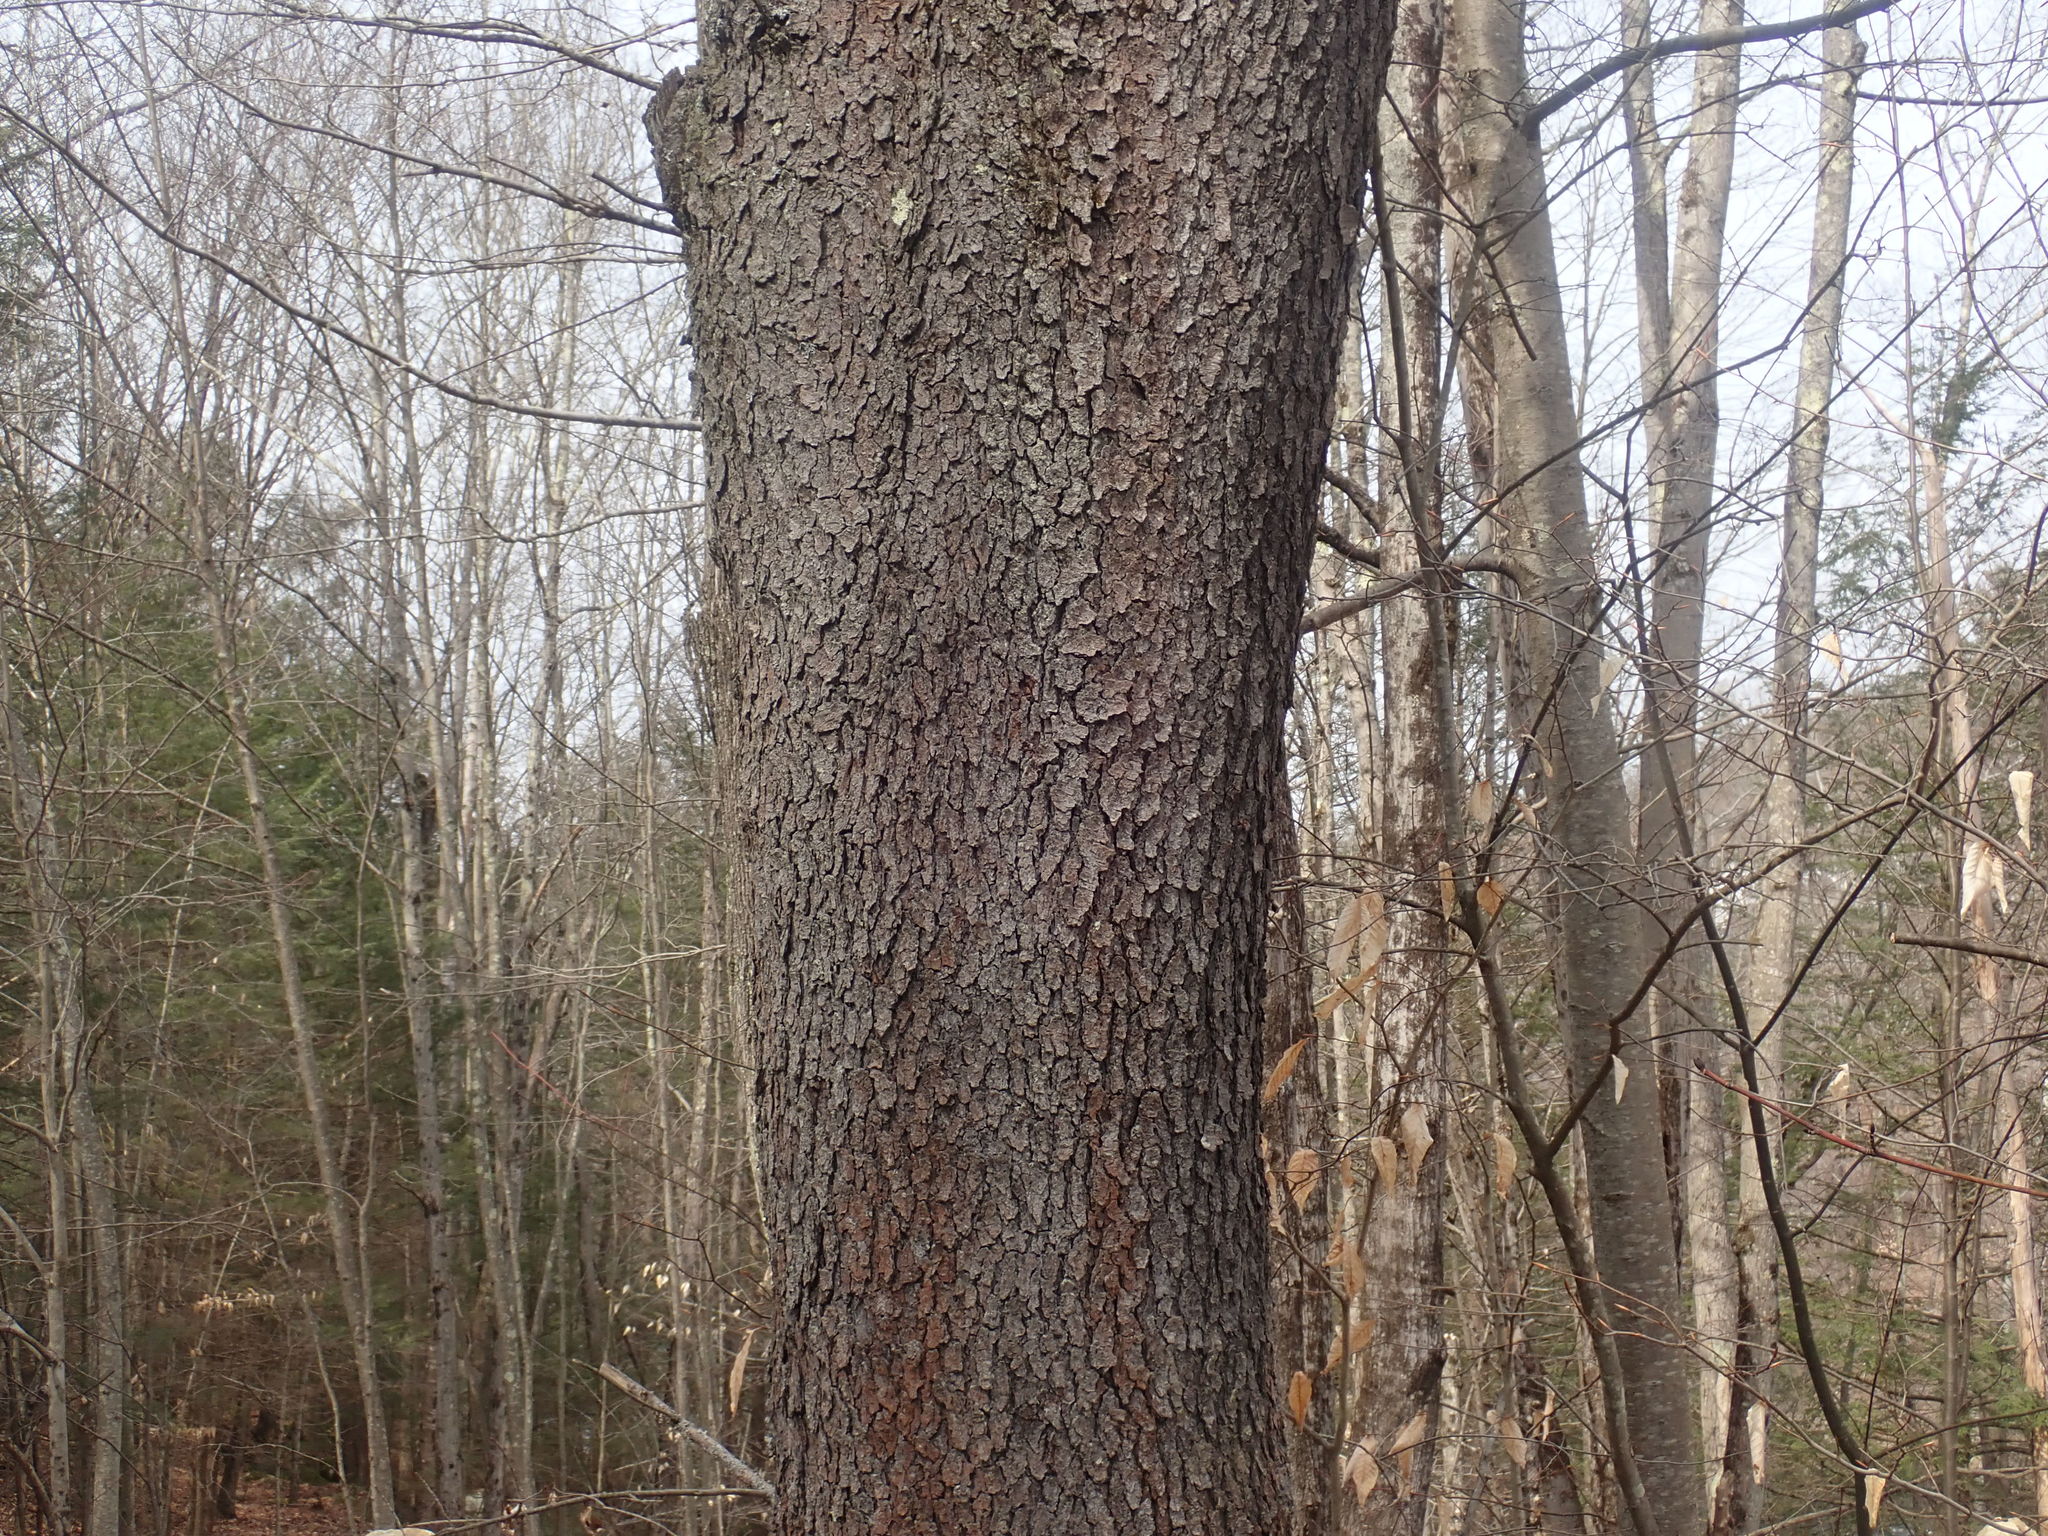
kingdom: Plantae
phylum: Tracheophyta
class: Magnoliopsida
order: Rosales
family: Rosaceae
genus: Prunus
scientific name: Prunus serotina
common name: Black cherry
